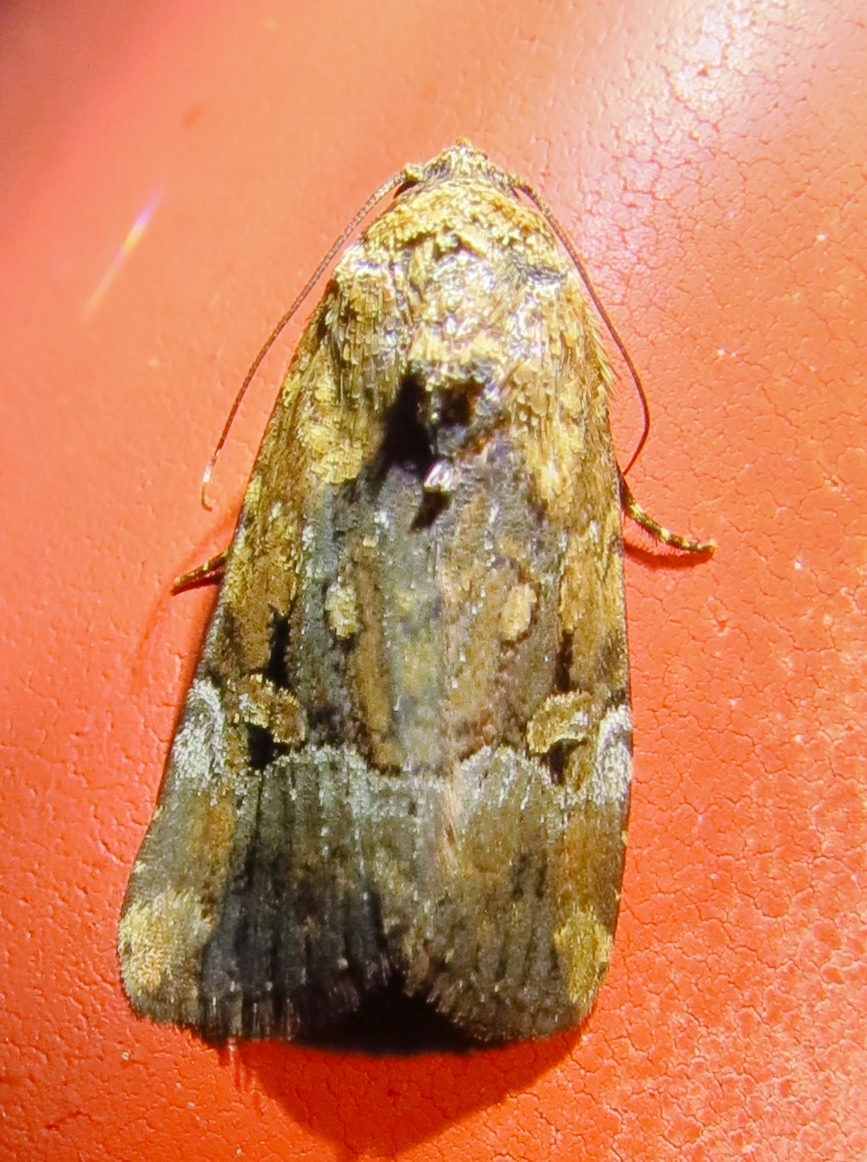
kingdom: Animalia
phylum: Arthropoda
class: Insecta
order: Lepidoptera
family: Noctuidae
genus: Elaphria
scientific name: Elaphria chalcedonia
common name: Chalcedony midget
